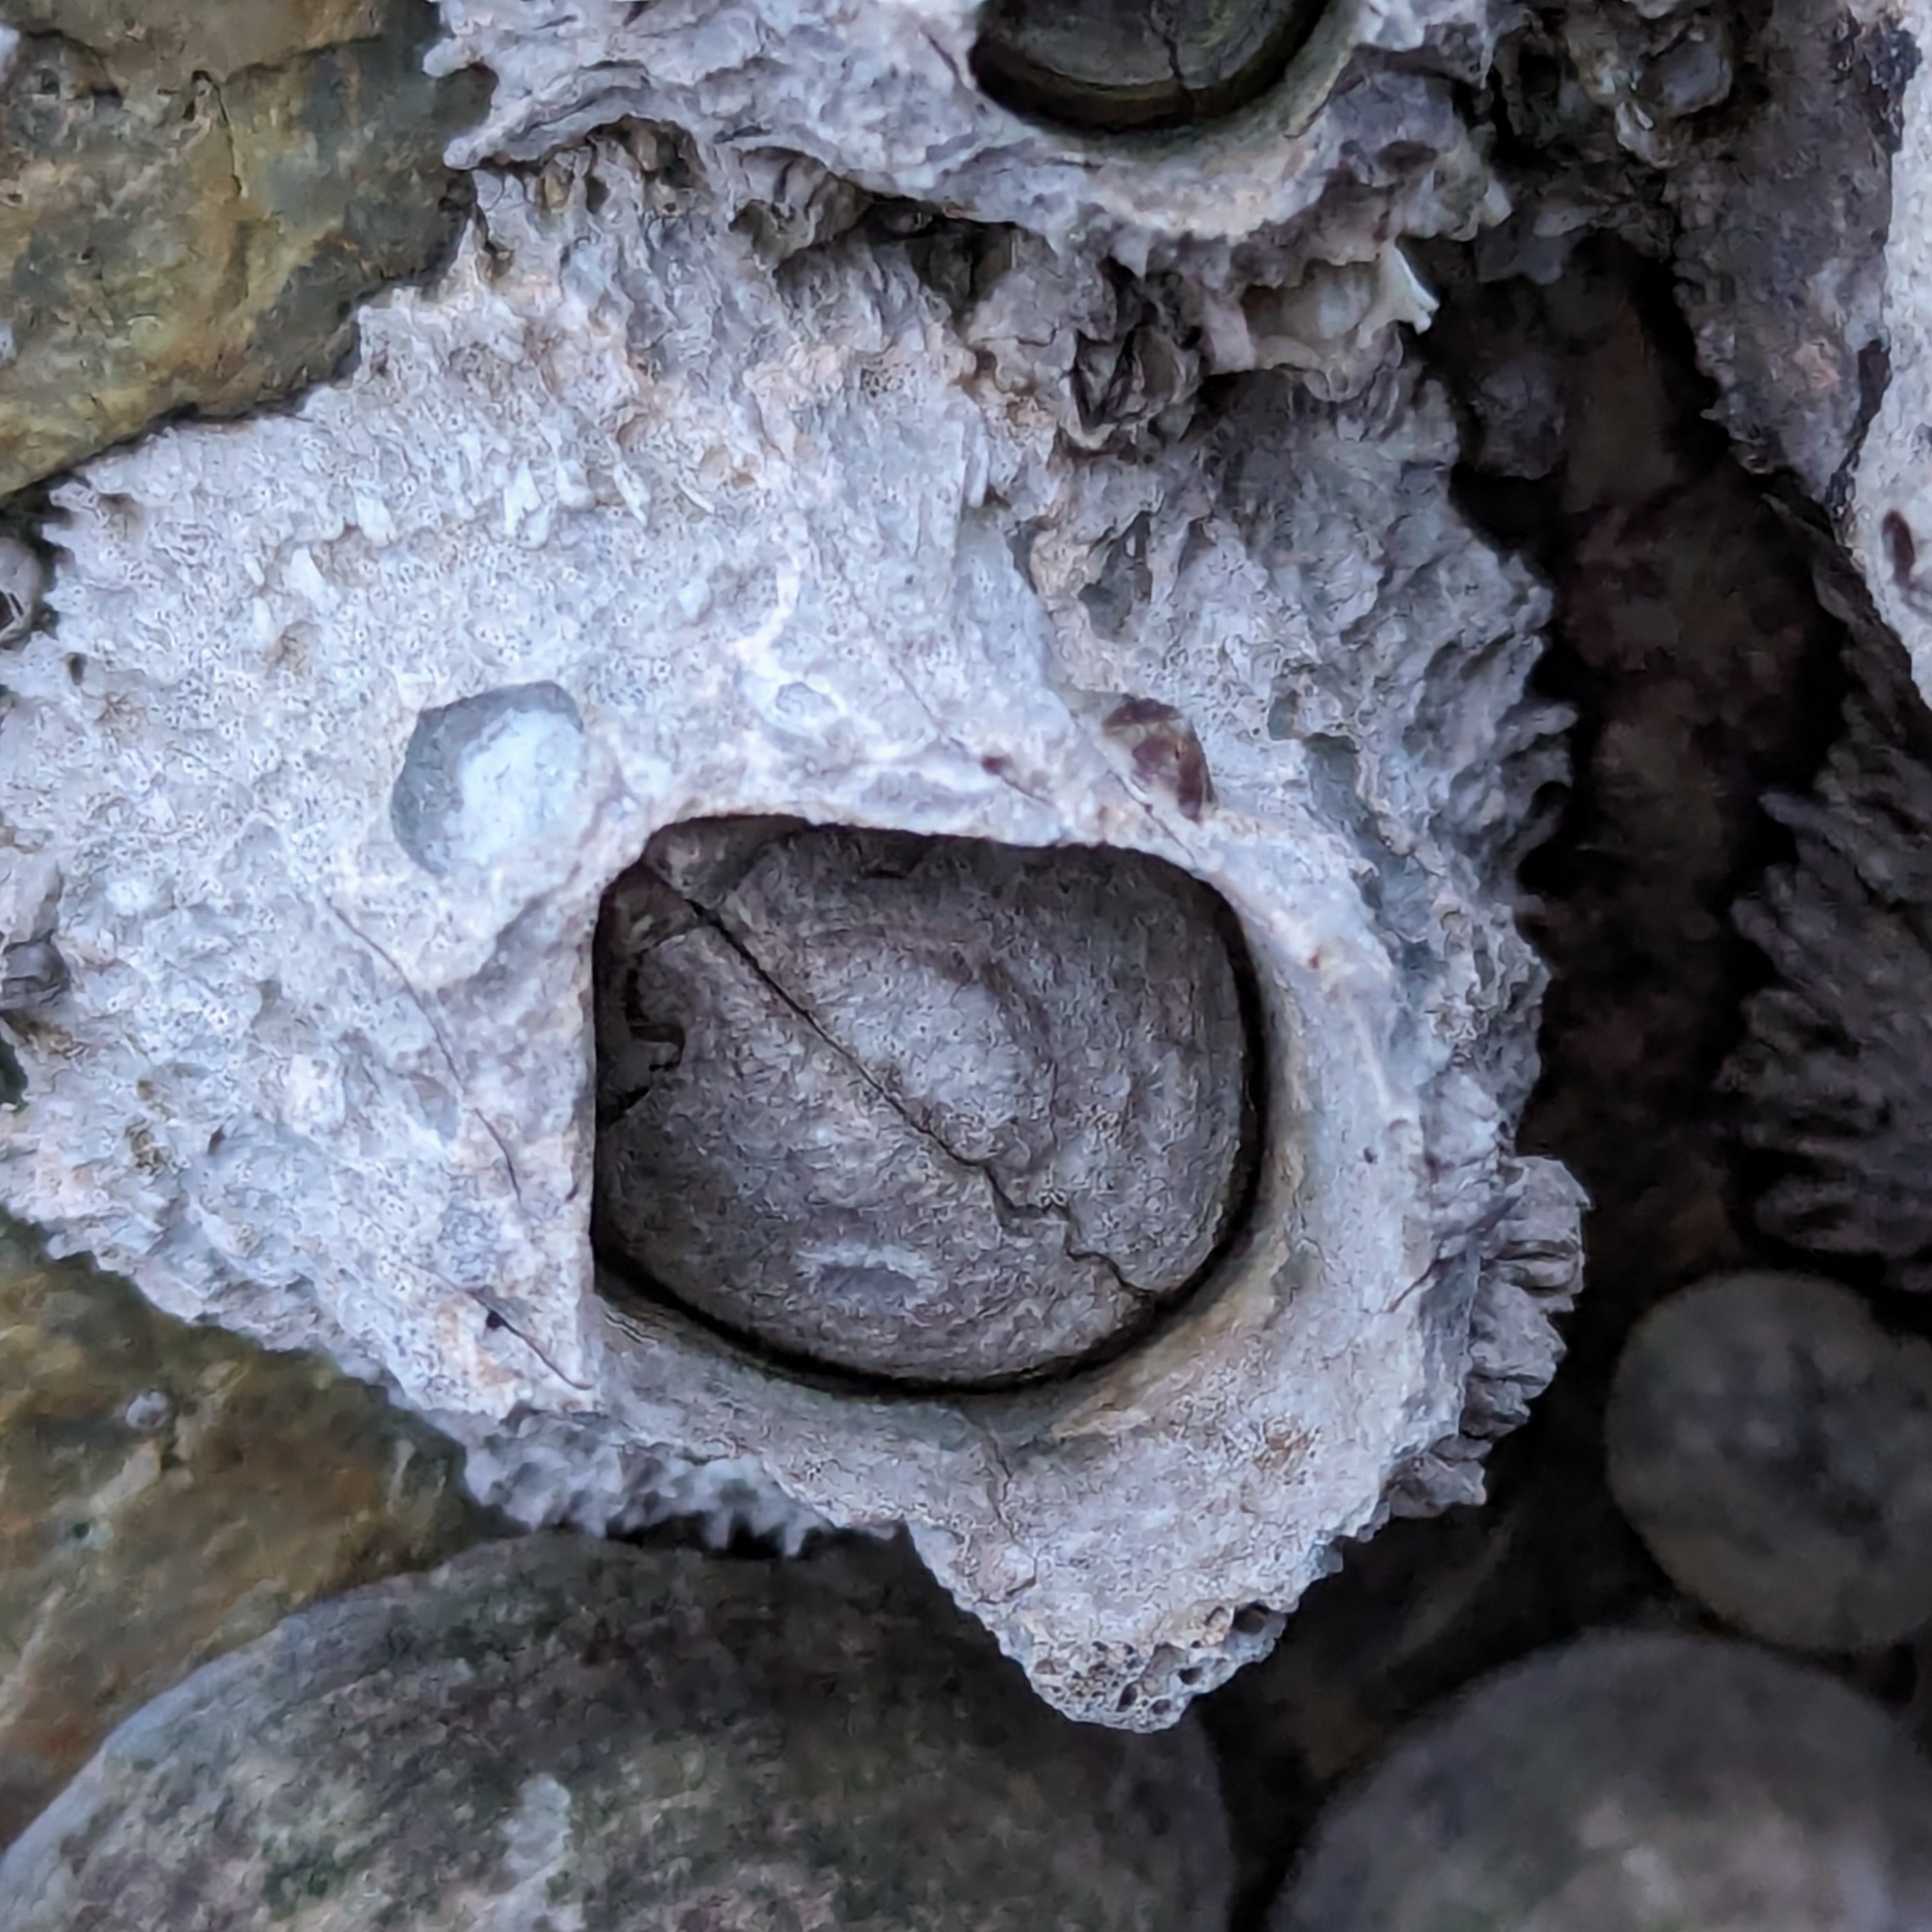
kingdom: Animalia
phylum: Arthropoda
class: Maxillopoda
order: Sessilia
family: Archaeobalanidae
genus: Semibalanus
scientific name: Semibalanus cariosus
